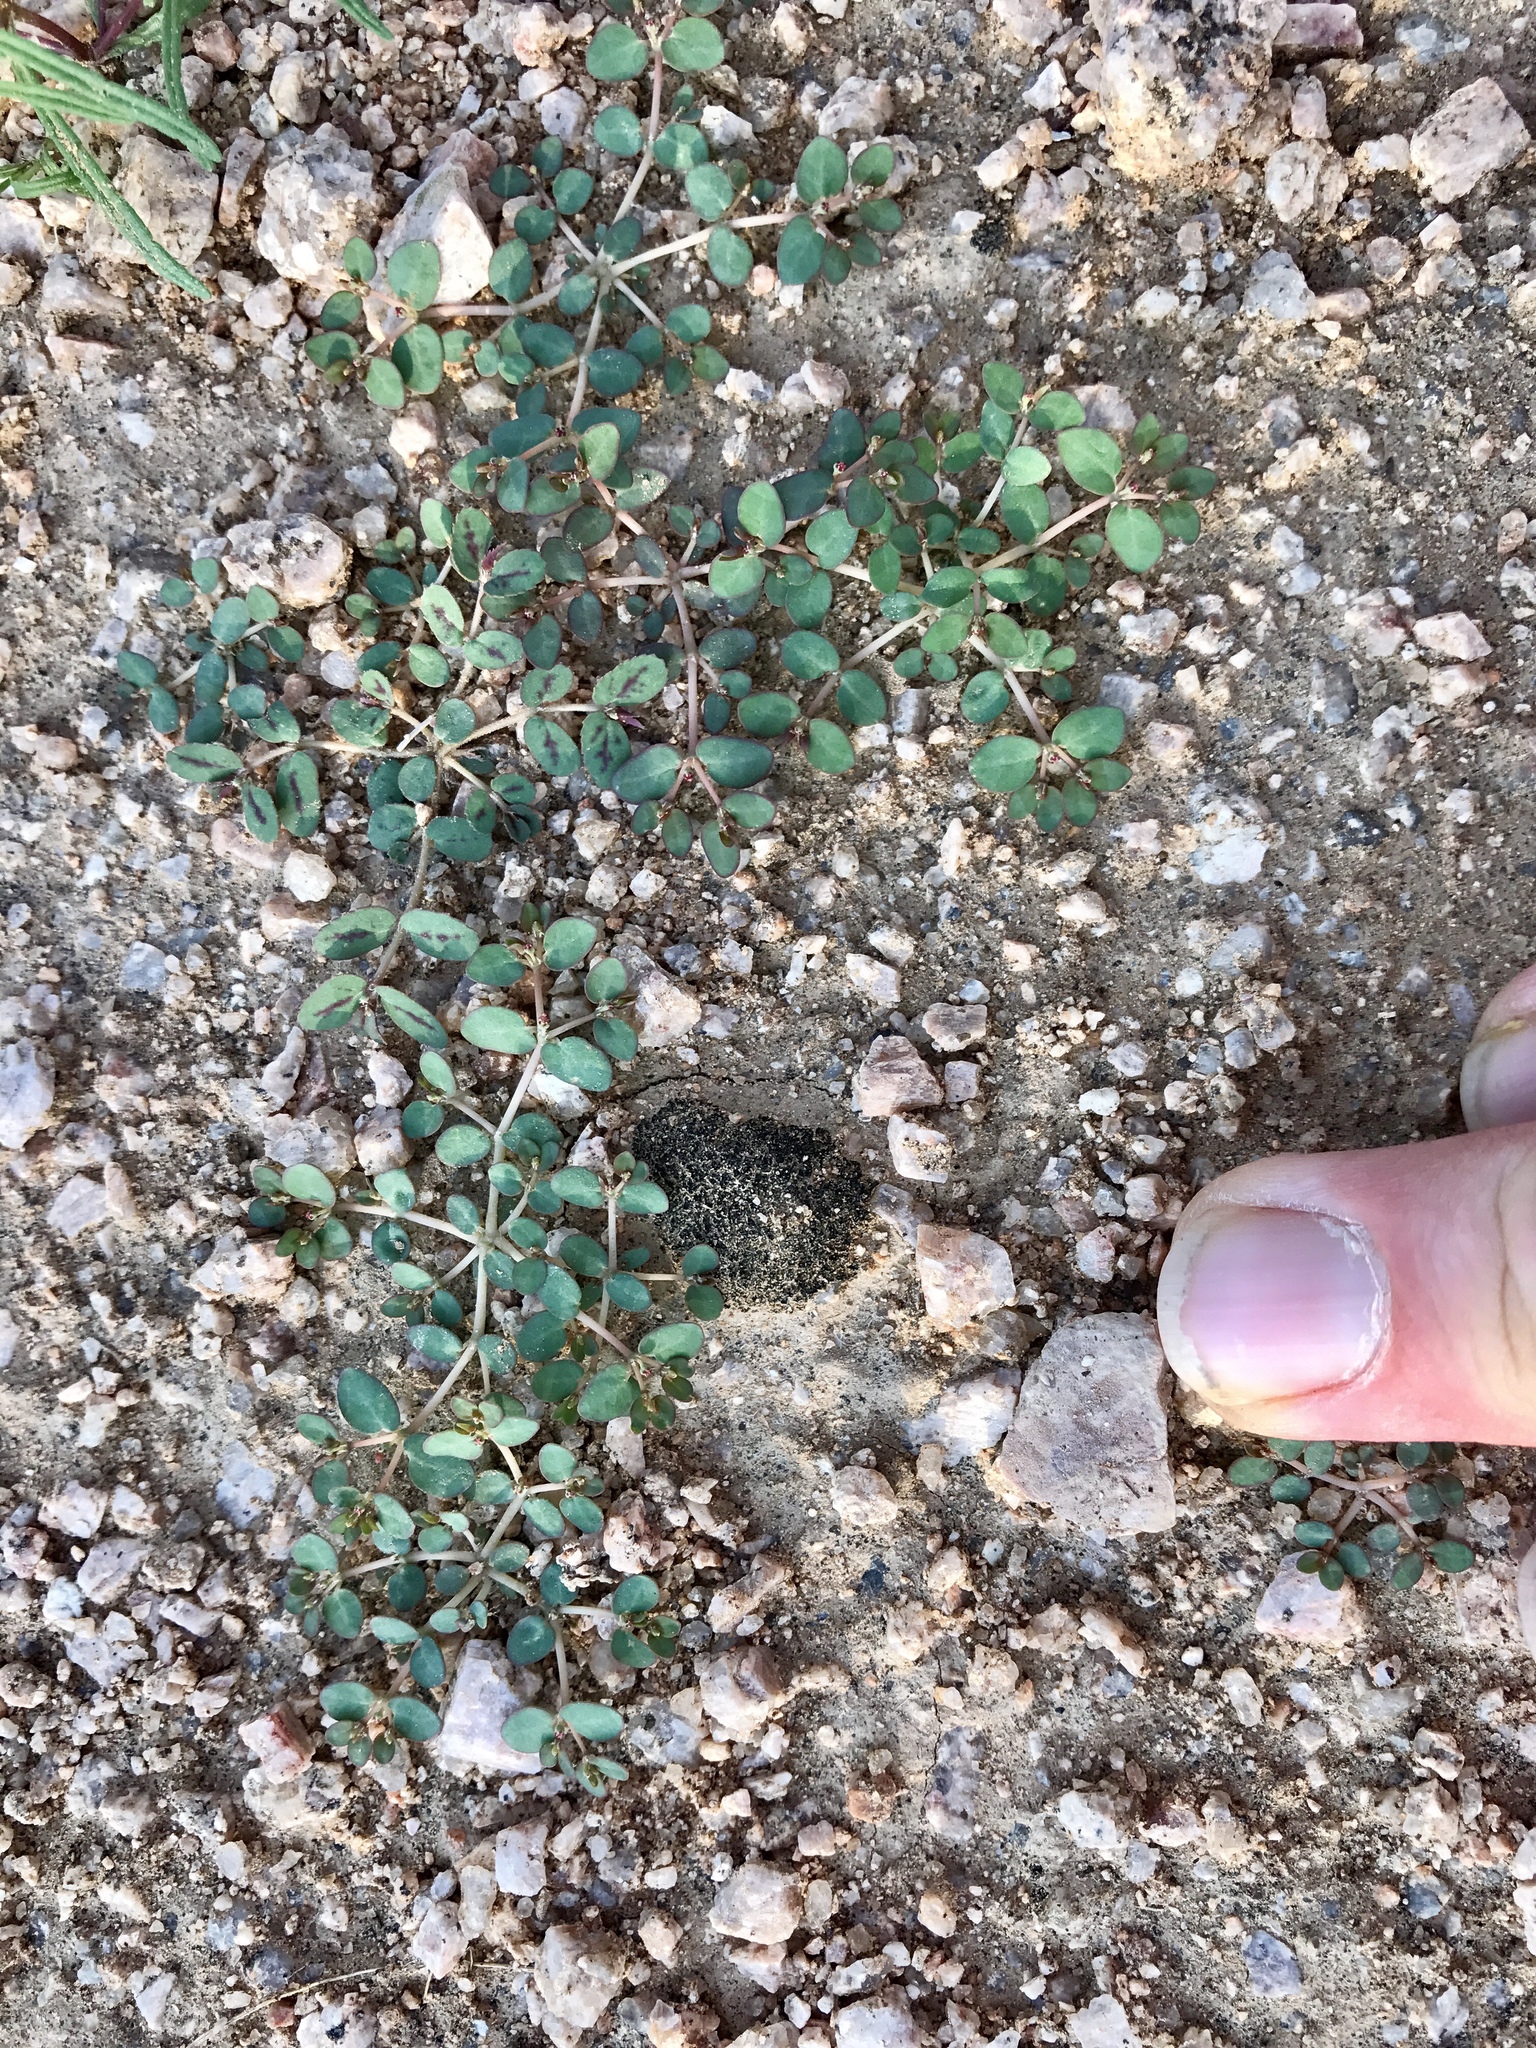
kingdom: Plantae
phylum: Tracheophyta
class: Magnoliopsida
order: Malpighiales
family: Euphorbiaceae
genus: Euphorbia
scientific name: Euphorbia micromera
